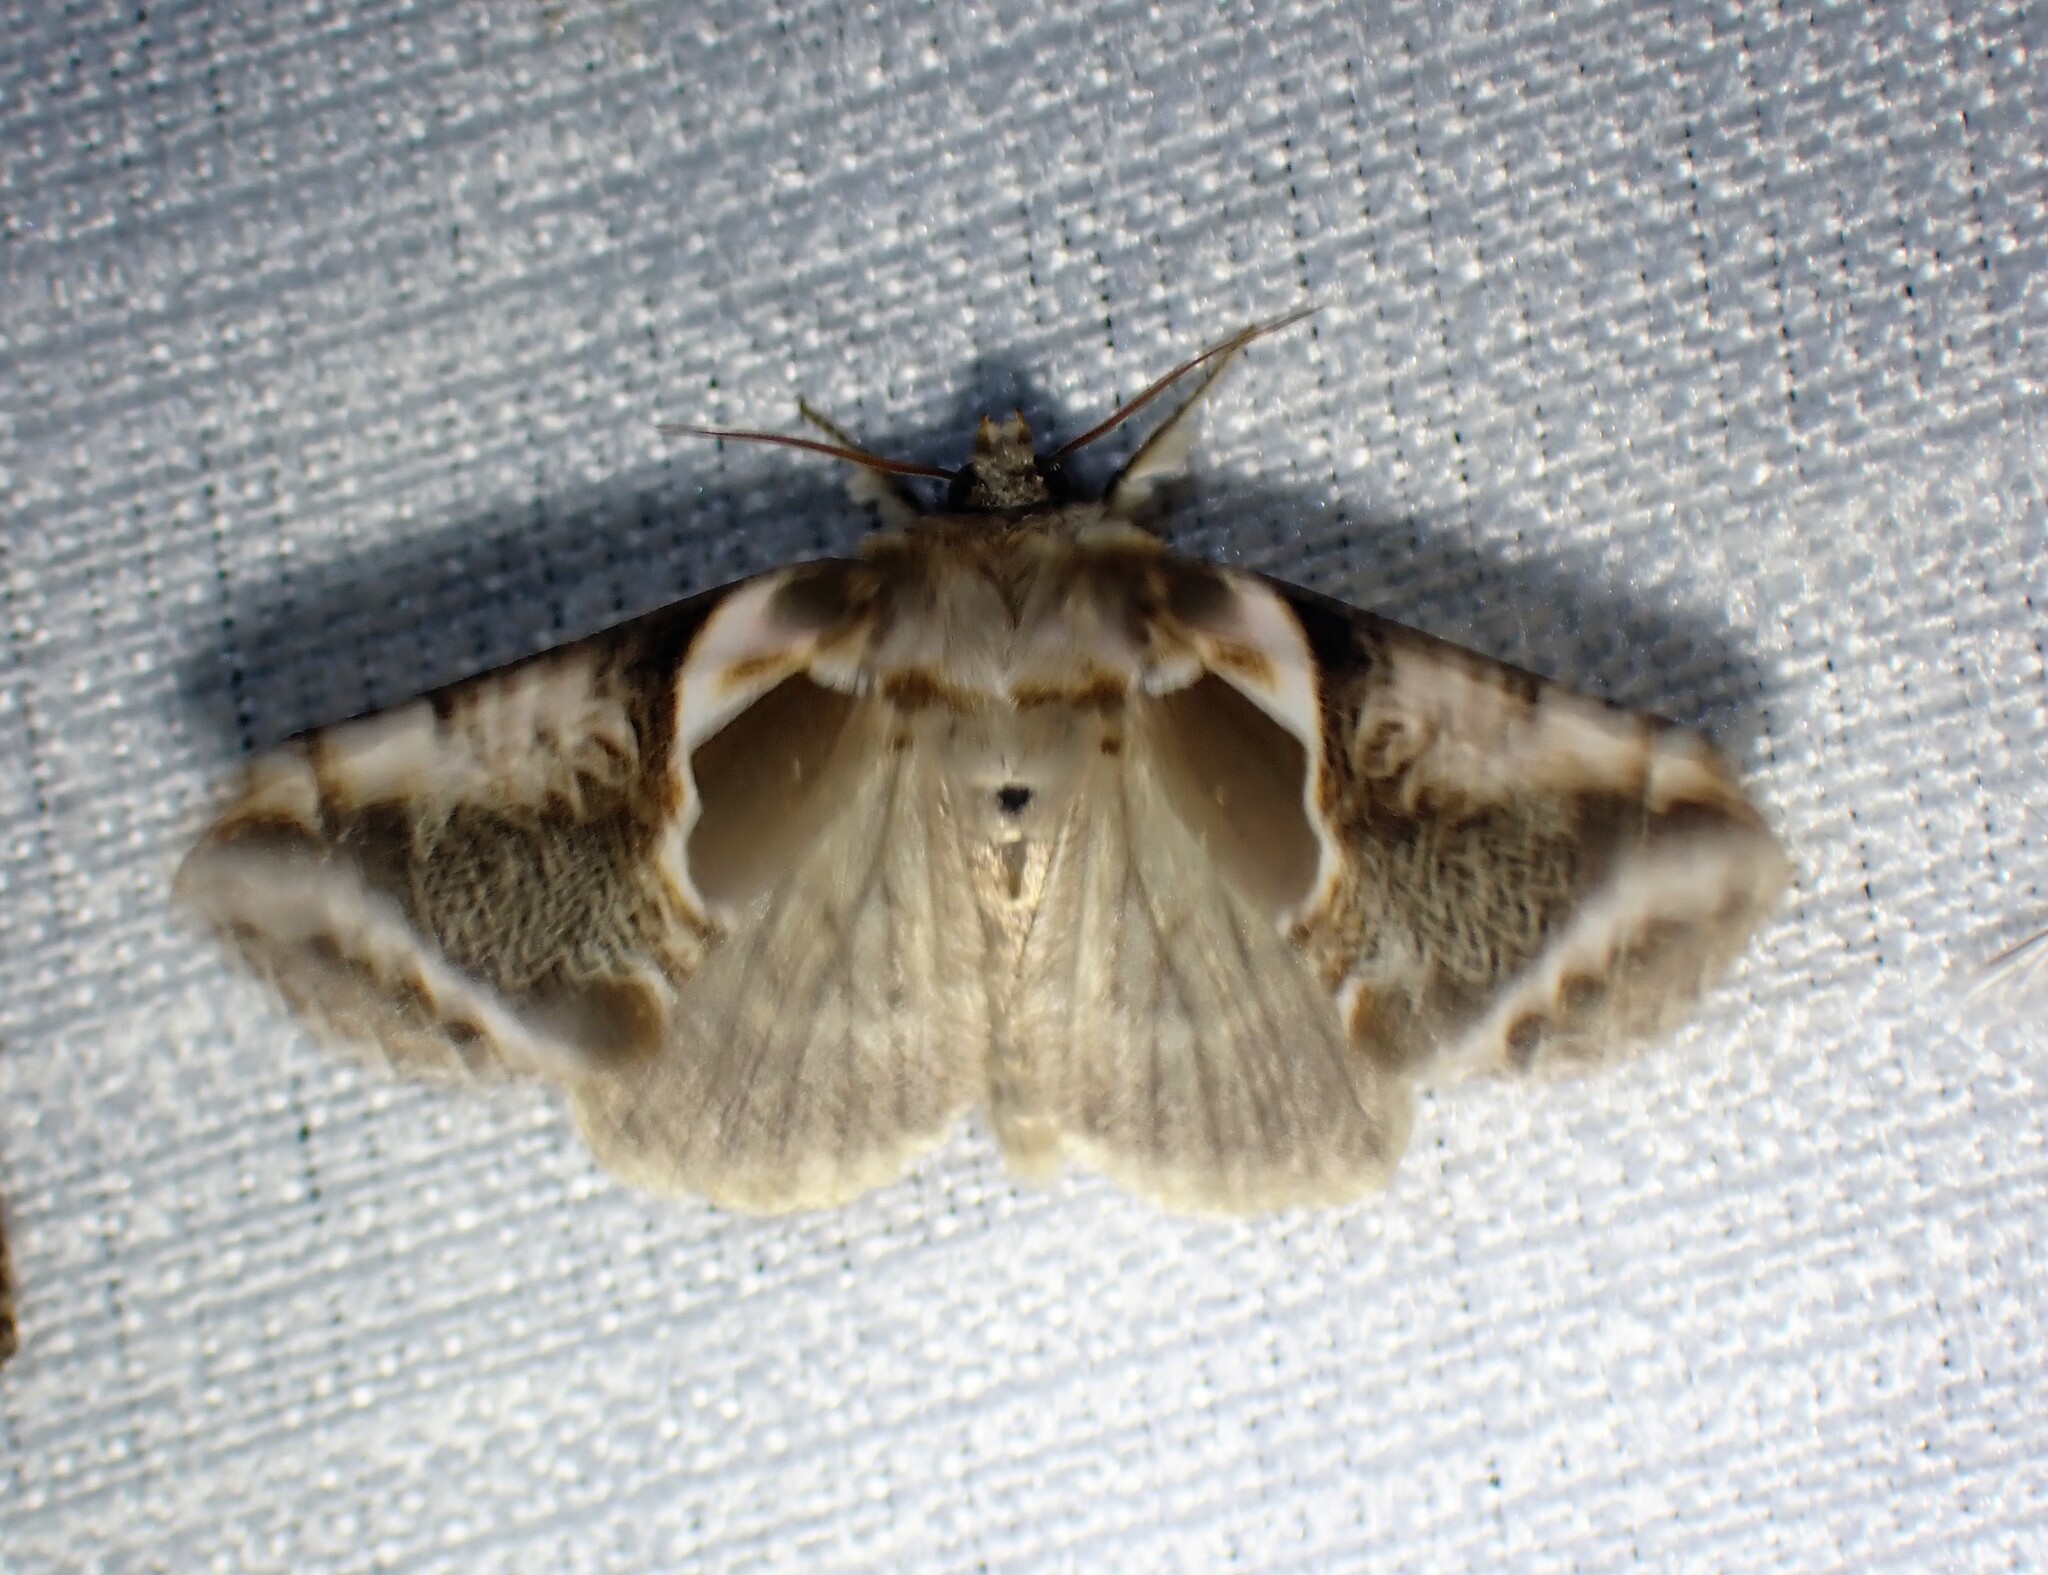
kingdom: Animalia
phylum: Arthropoda
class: Insecta
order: Lepidoptera
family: Drepanidae
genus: Habrosyne
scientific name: Habrosyne scripta
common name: Lettered habrosyne moth
